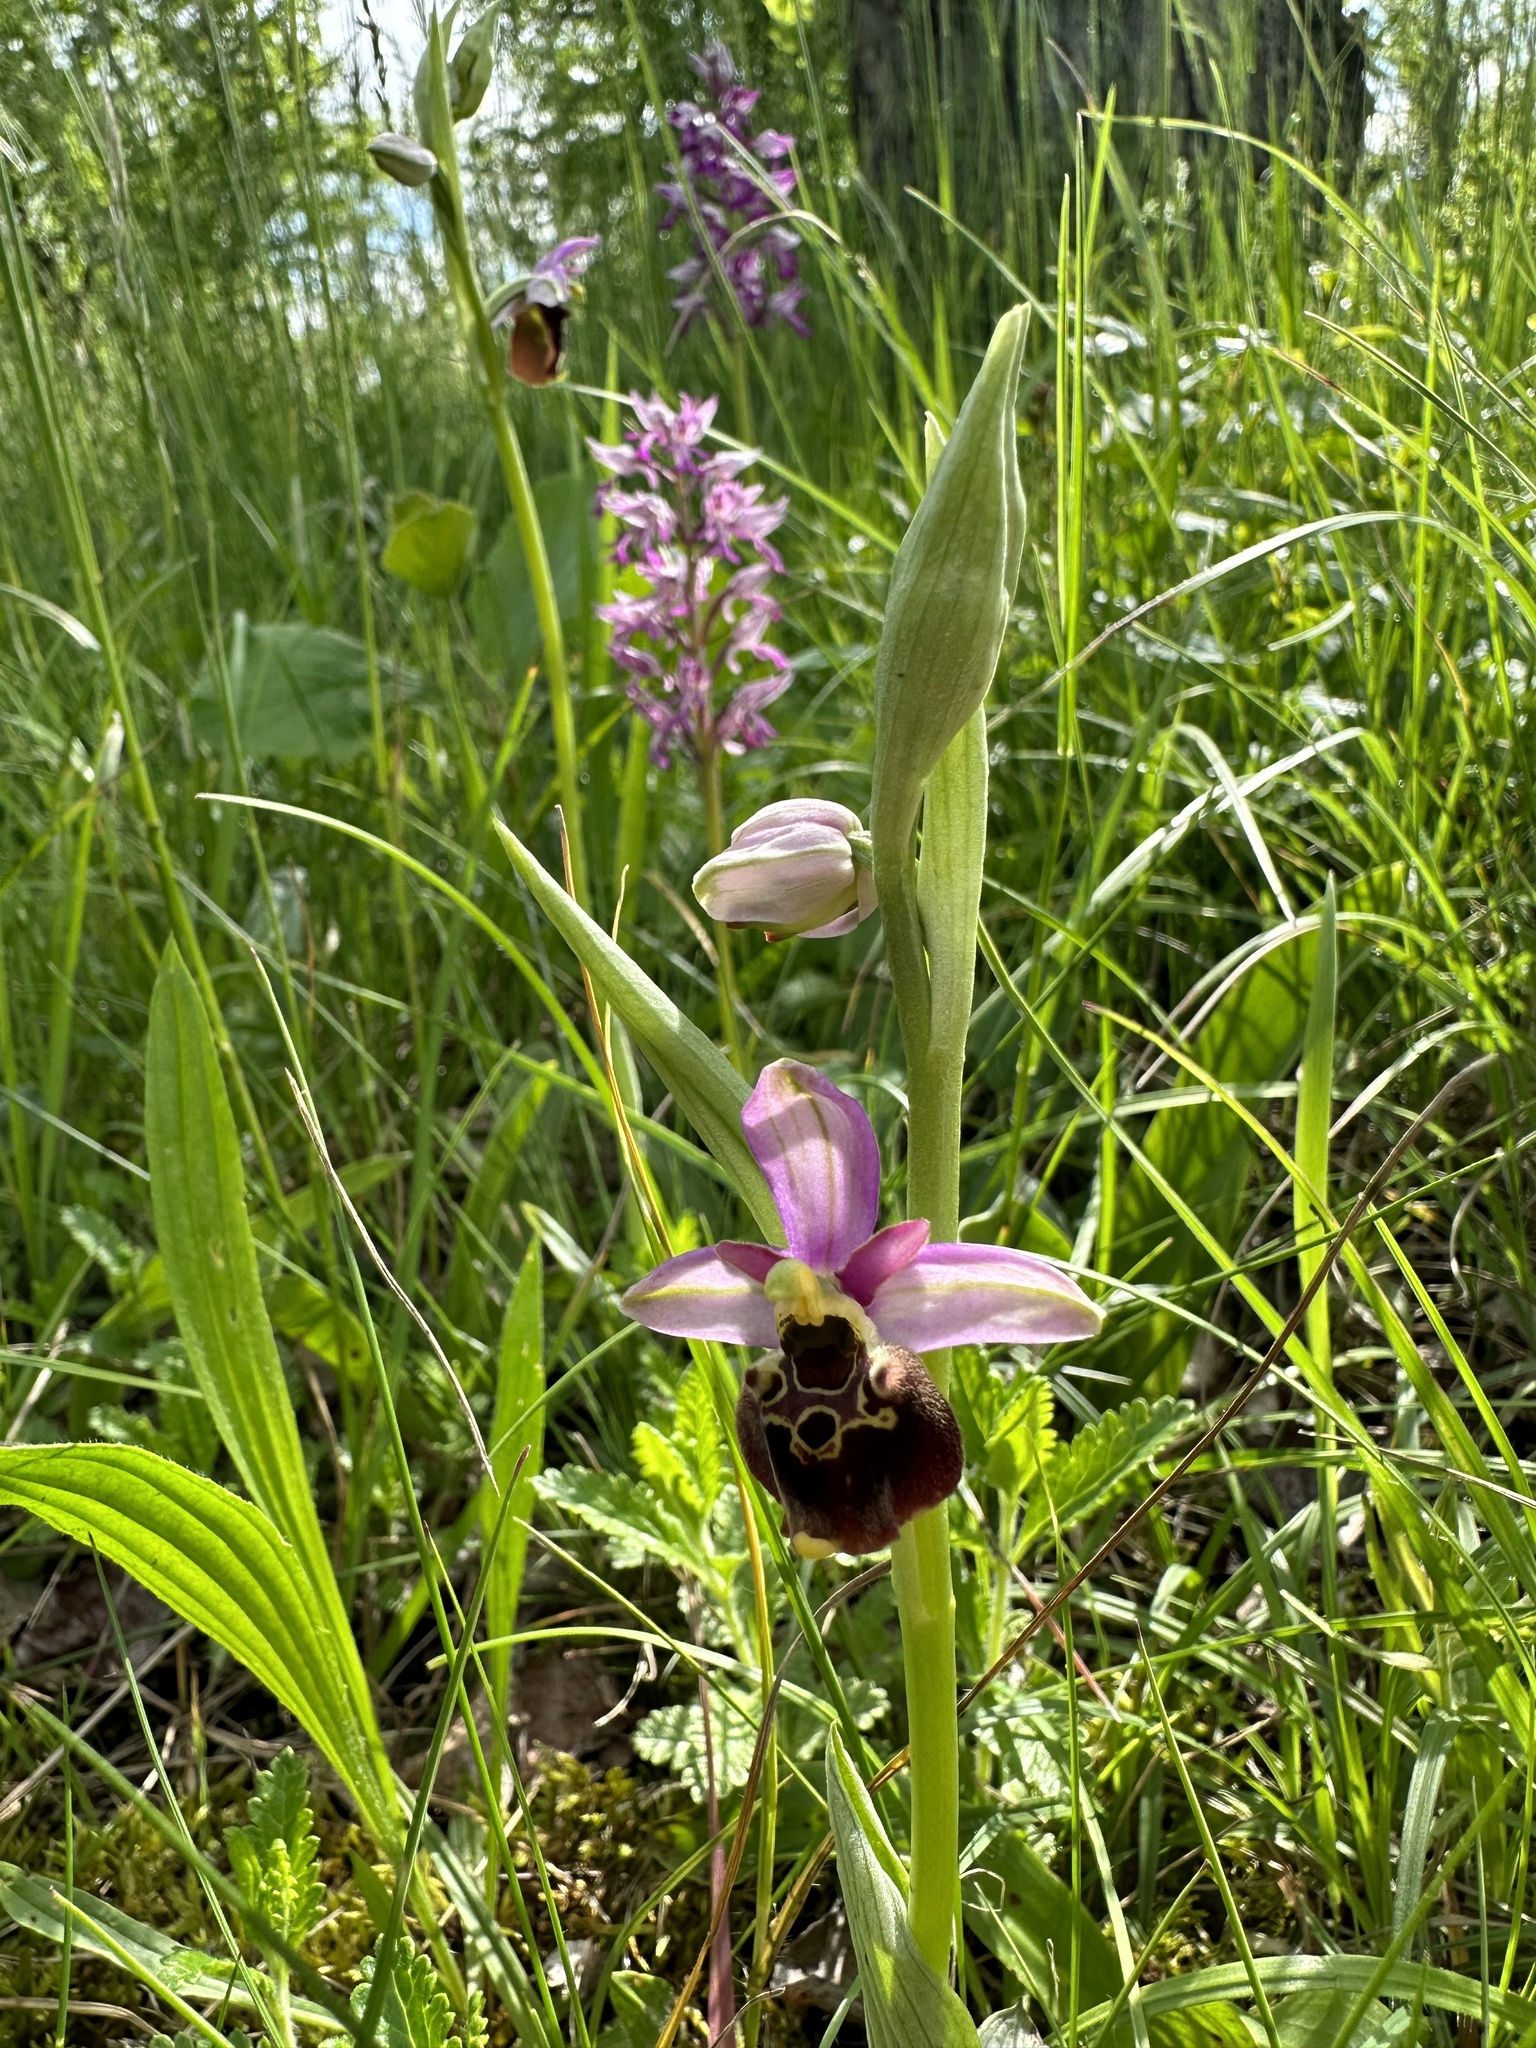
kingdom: Plantae
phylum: Tracheophyta
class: Liliopsida
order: Asparagales
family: Orchidaceae
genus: Ophrys
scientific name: Ophrys holosericea
